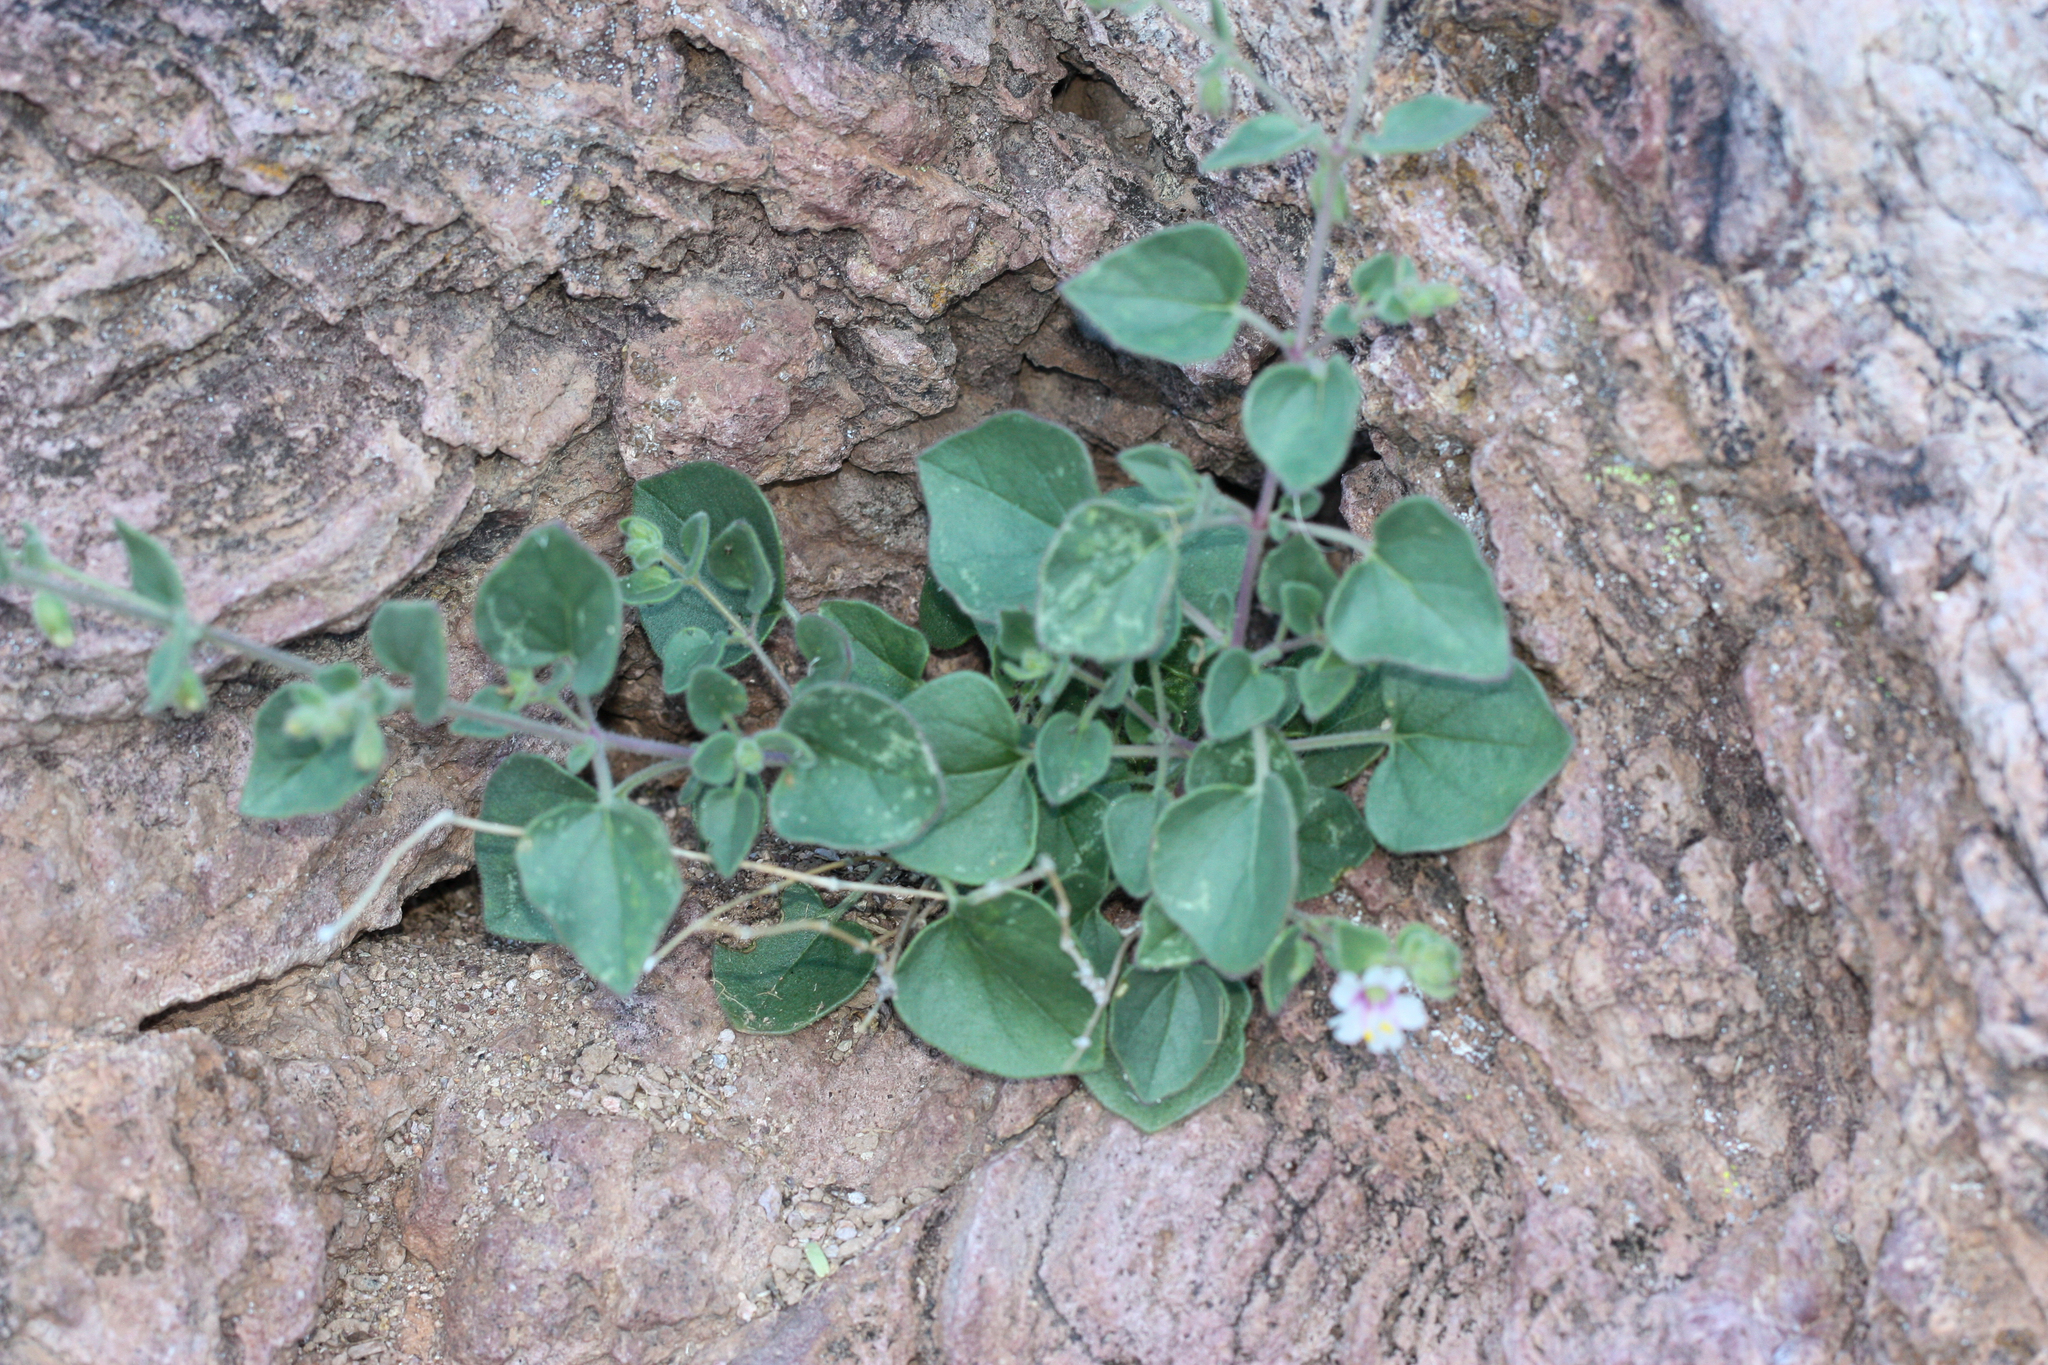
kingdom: Plantae
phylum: Tracheophyta
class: Magnoliopsida
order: Caryophyllales
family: Nyctaginaceae
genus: Mirabilis
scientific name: Mirabilis laevis
